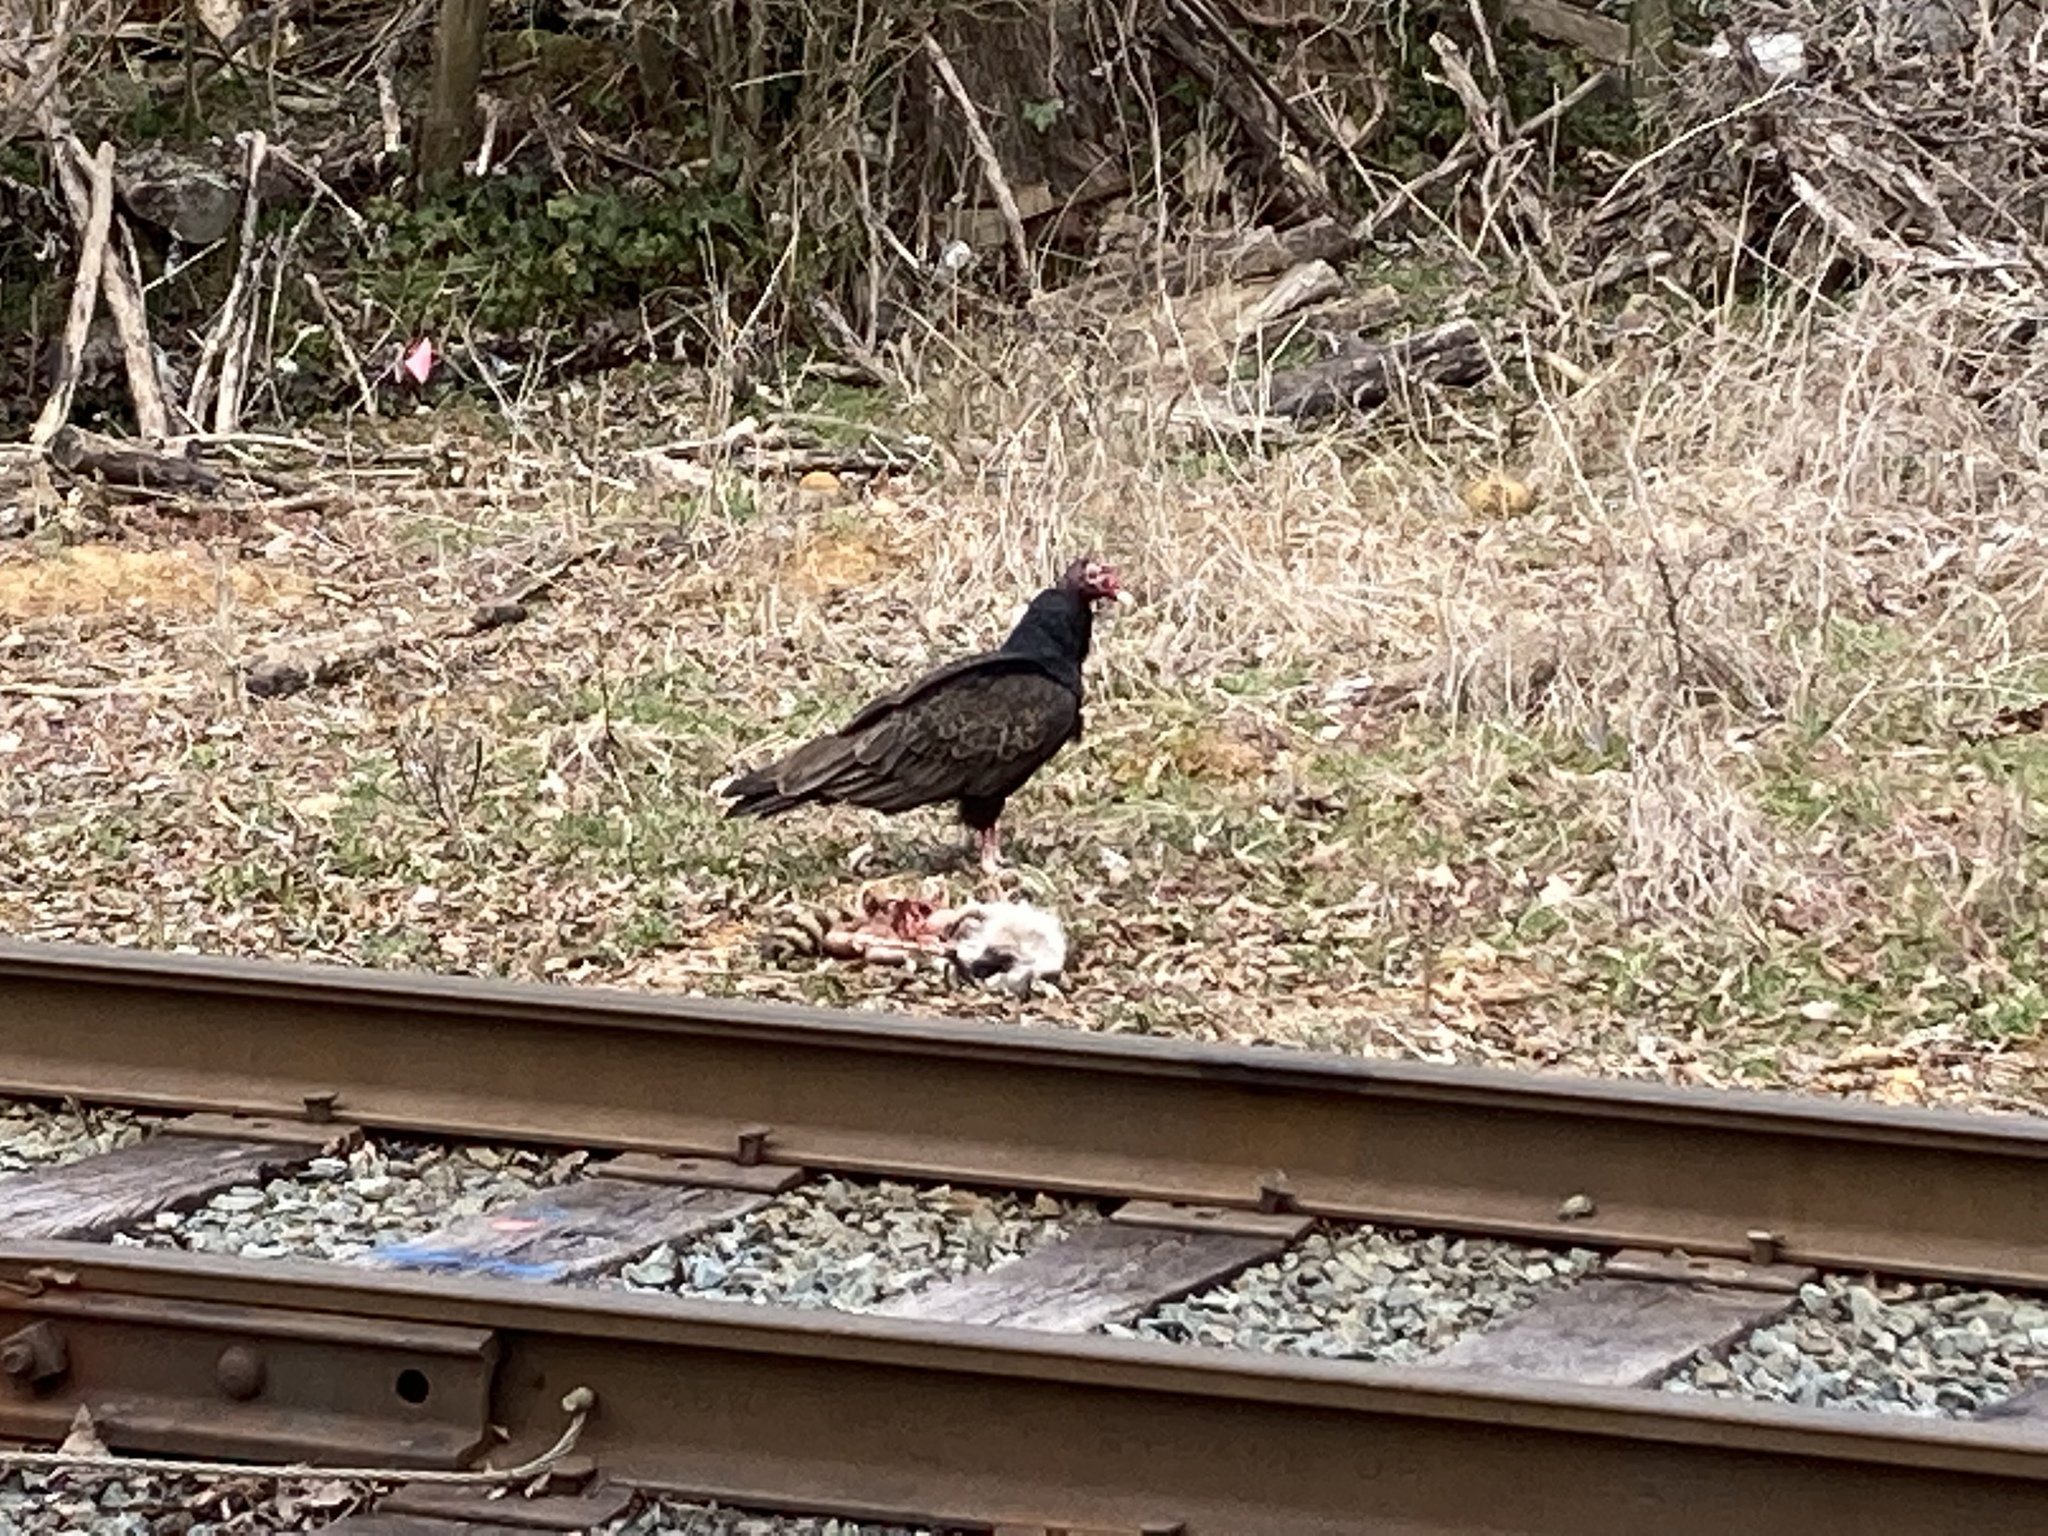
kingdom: Animalia
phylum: Chordata
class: Aves
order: Accipitriformes
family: Cathartidae
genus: Cathartes
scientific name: Cathartes aura
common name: Turkey vulture
